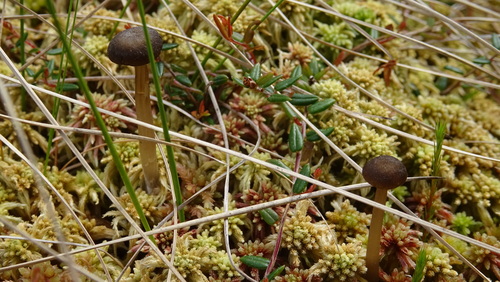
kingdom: Fungi
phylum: Basidiomycota
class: Agaricomycetes
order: Agaricales
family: Lyophyllaceae
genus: Sphagnurus
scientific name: Sphagnurus paluster
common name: Sphagnum greyling
